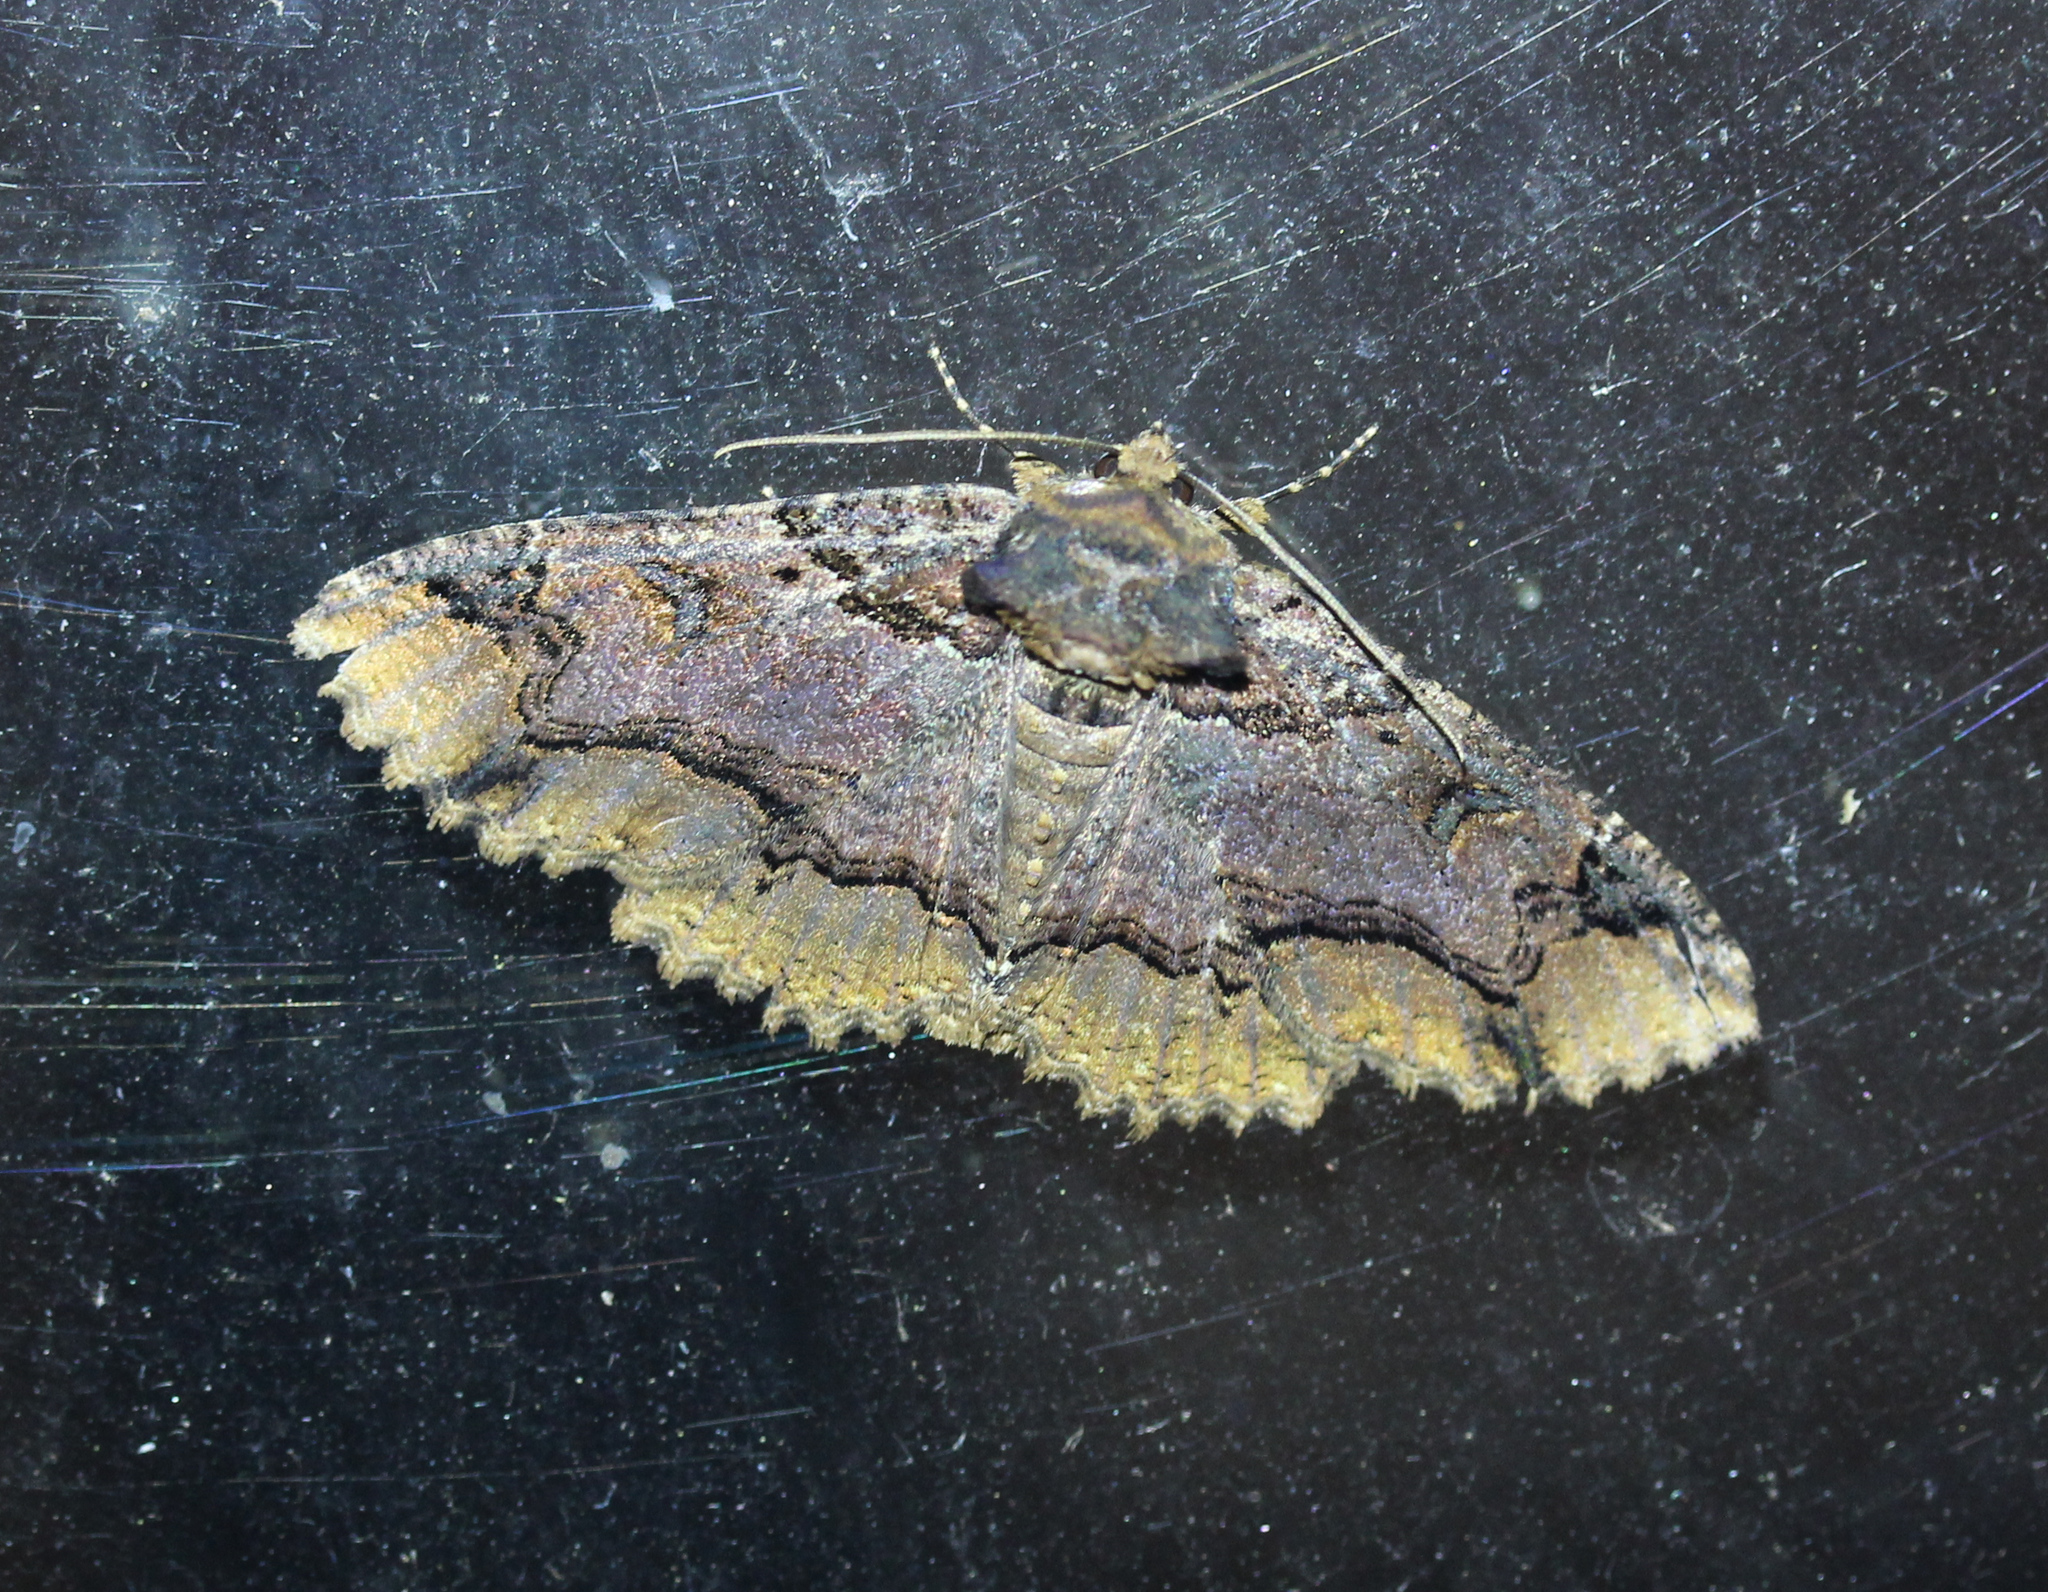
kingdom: Animalia
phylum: Arthropoda
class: Insecta
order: Lepidoptera
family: Erebidae
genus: Zale
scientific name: Zale minerea
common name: Colorful zale moth
